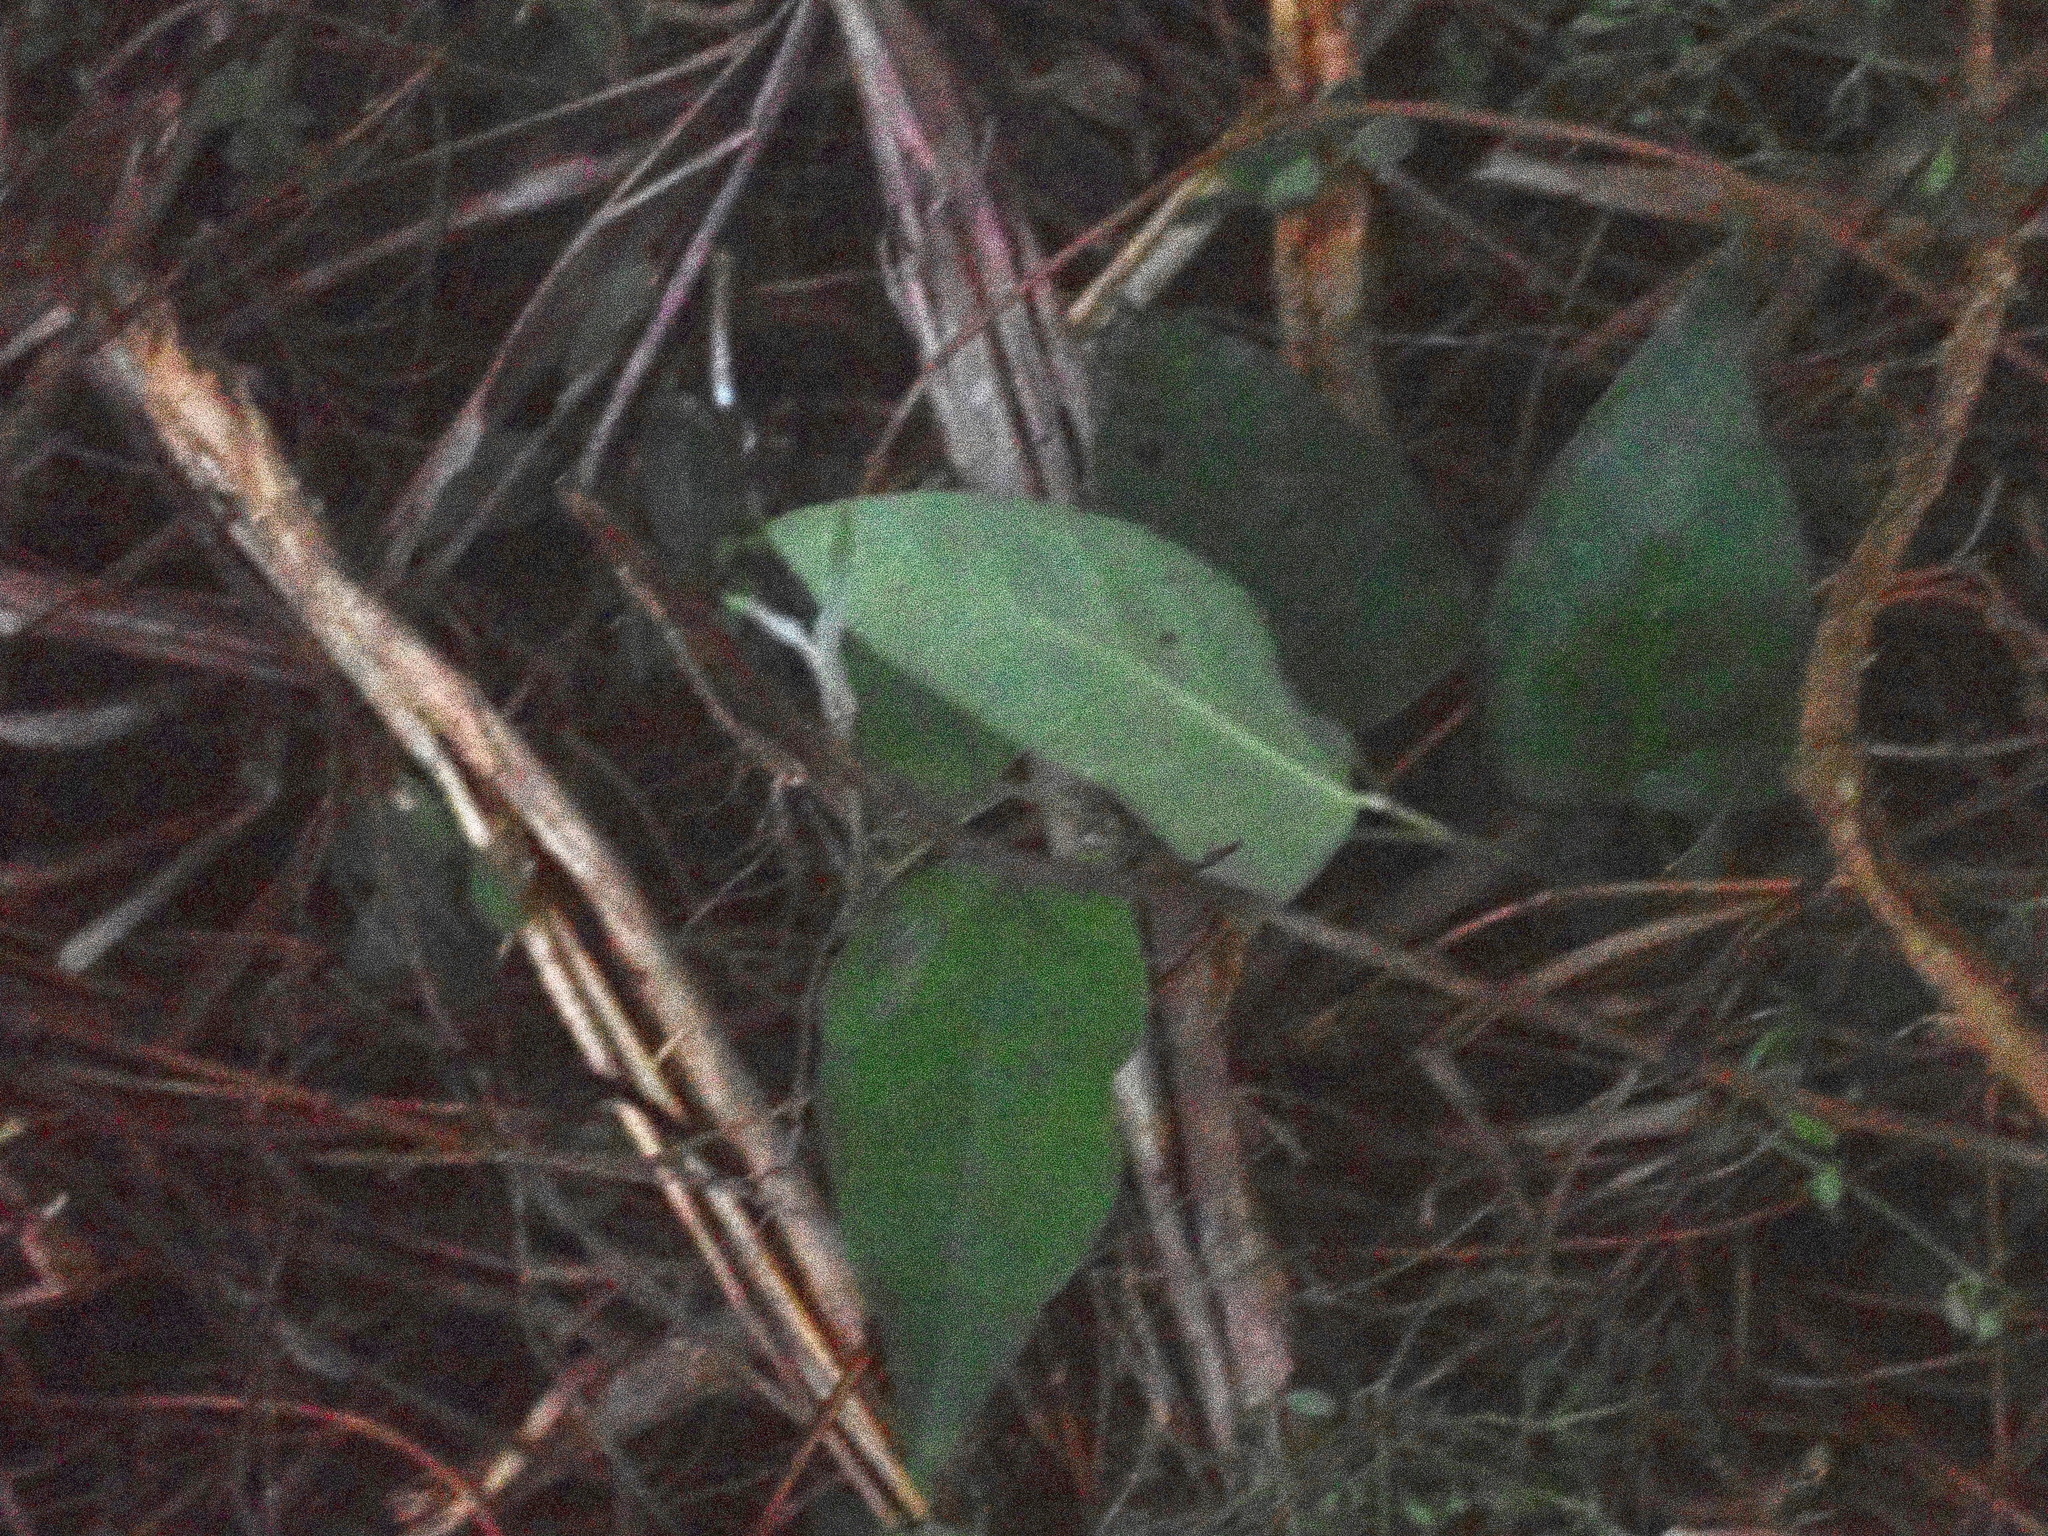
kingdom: Plantae
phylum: Tracheophyta
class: Magnoliopsida
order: Gentianales
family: Apocynaceae
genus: Araujia
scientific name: Araujia sericifera
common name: White bladderflower
